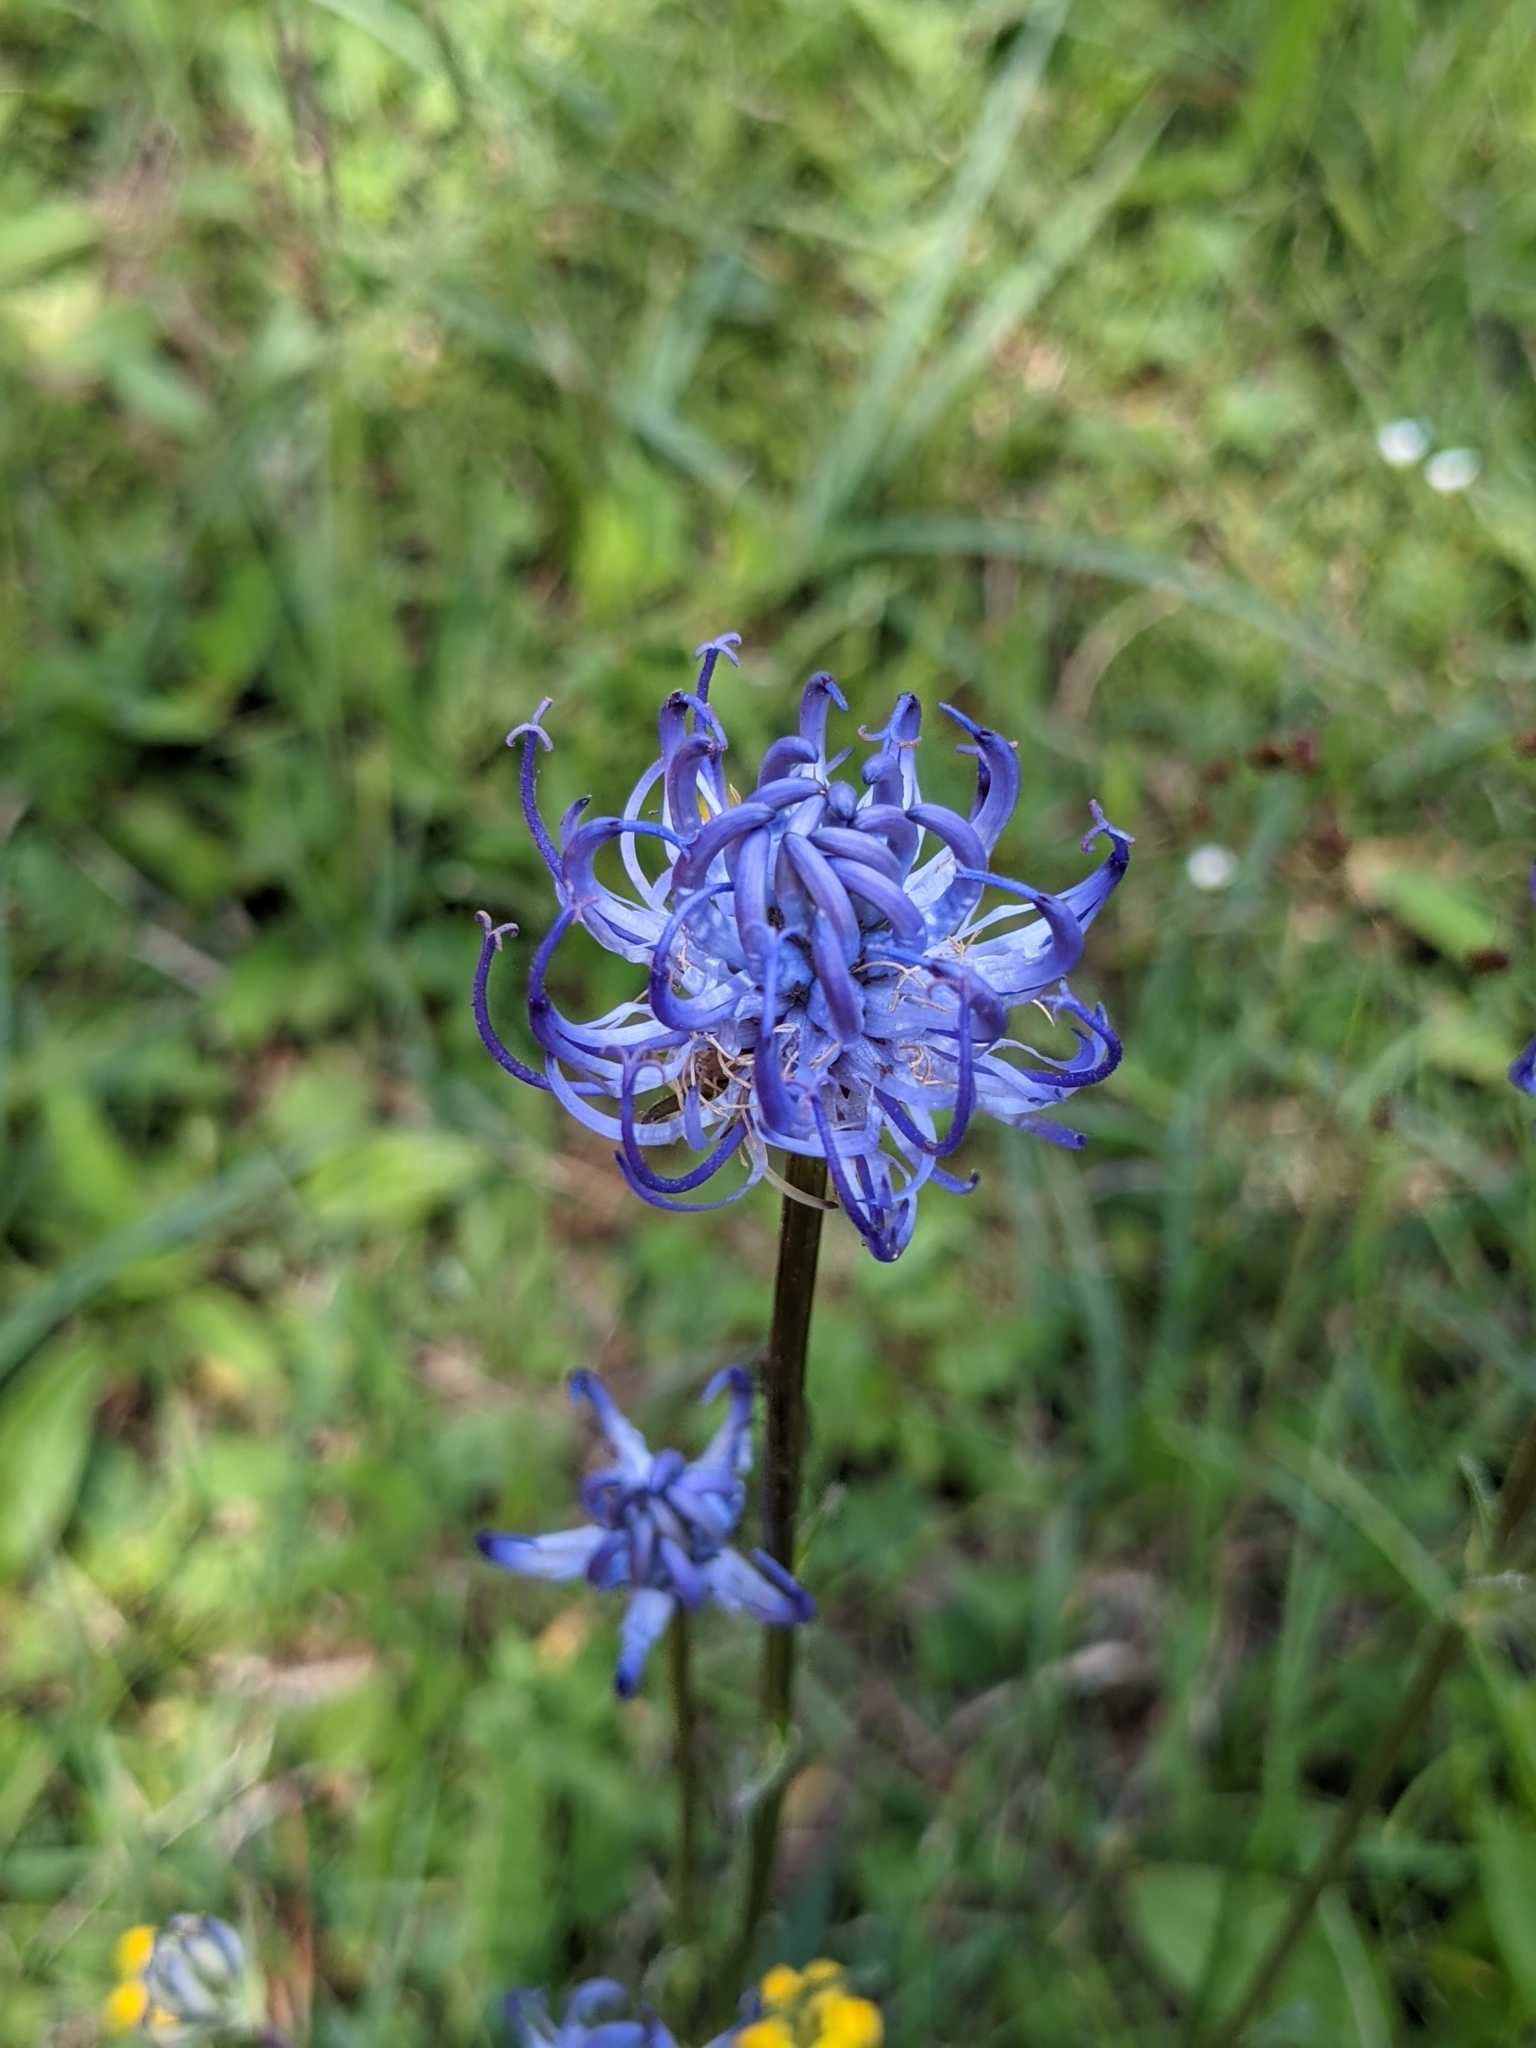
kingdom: Plantae
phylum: Tracheophyta
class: Magnoliopsida
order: Asterales
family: Campanulaceae
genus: Phyteuma
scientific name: Phyteuma orbiculare
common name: Round-headed rampion
